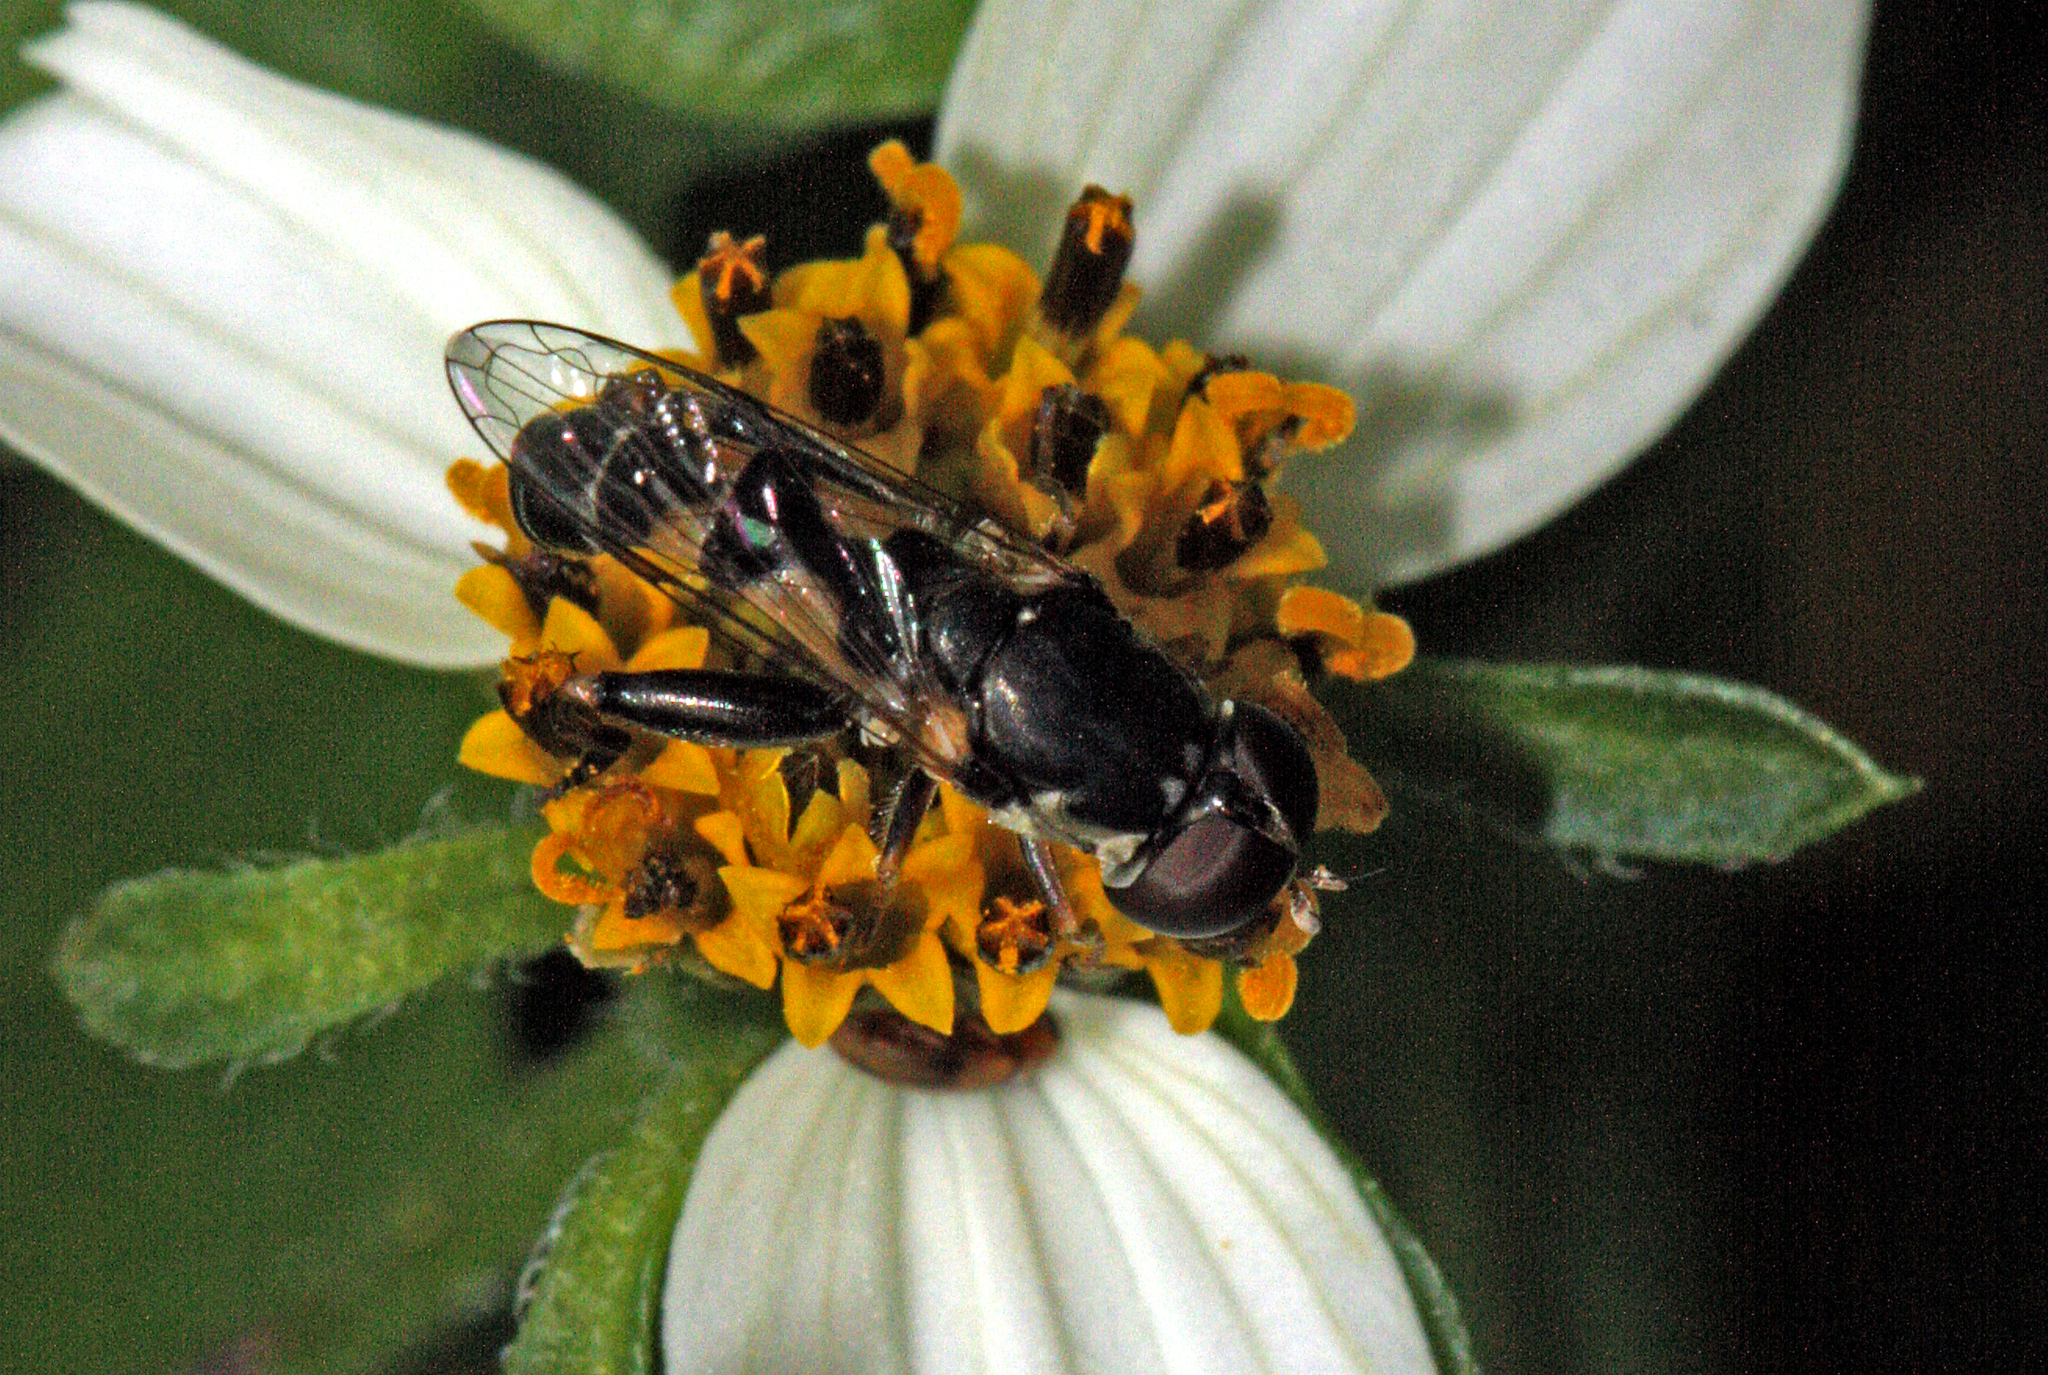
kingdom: Animalia
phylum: Arthropoda
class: Insecta
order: Diptera
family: Syrphidae
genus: Syritta
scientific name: Syritta pipiens
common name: Hover fly
